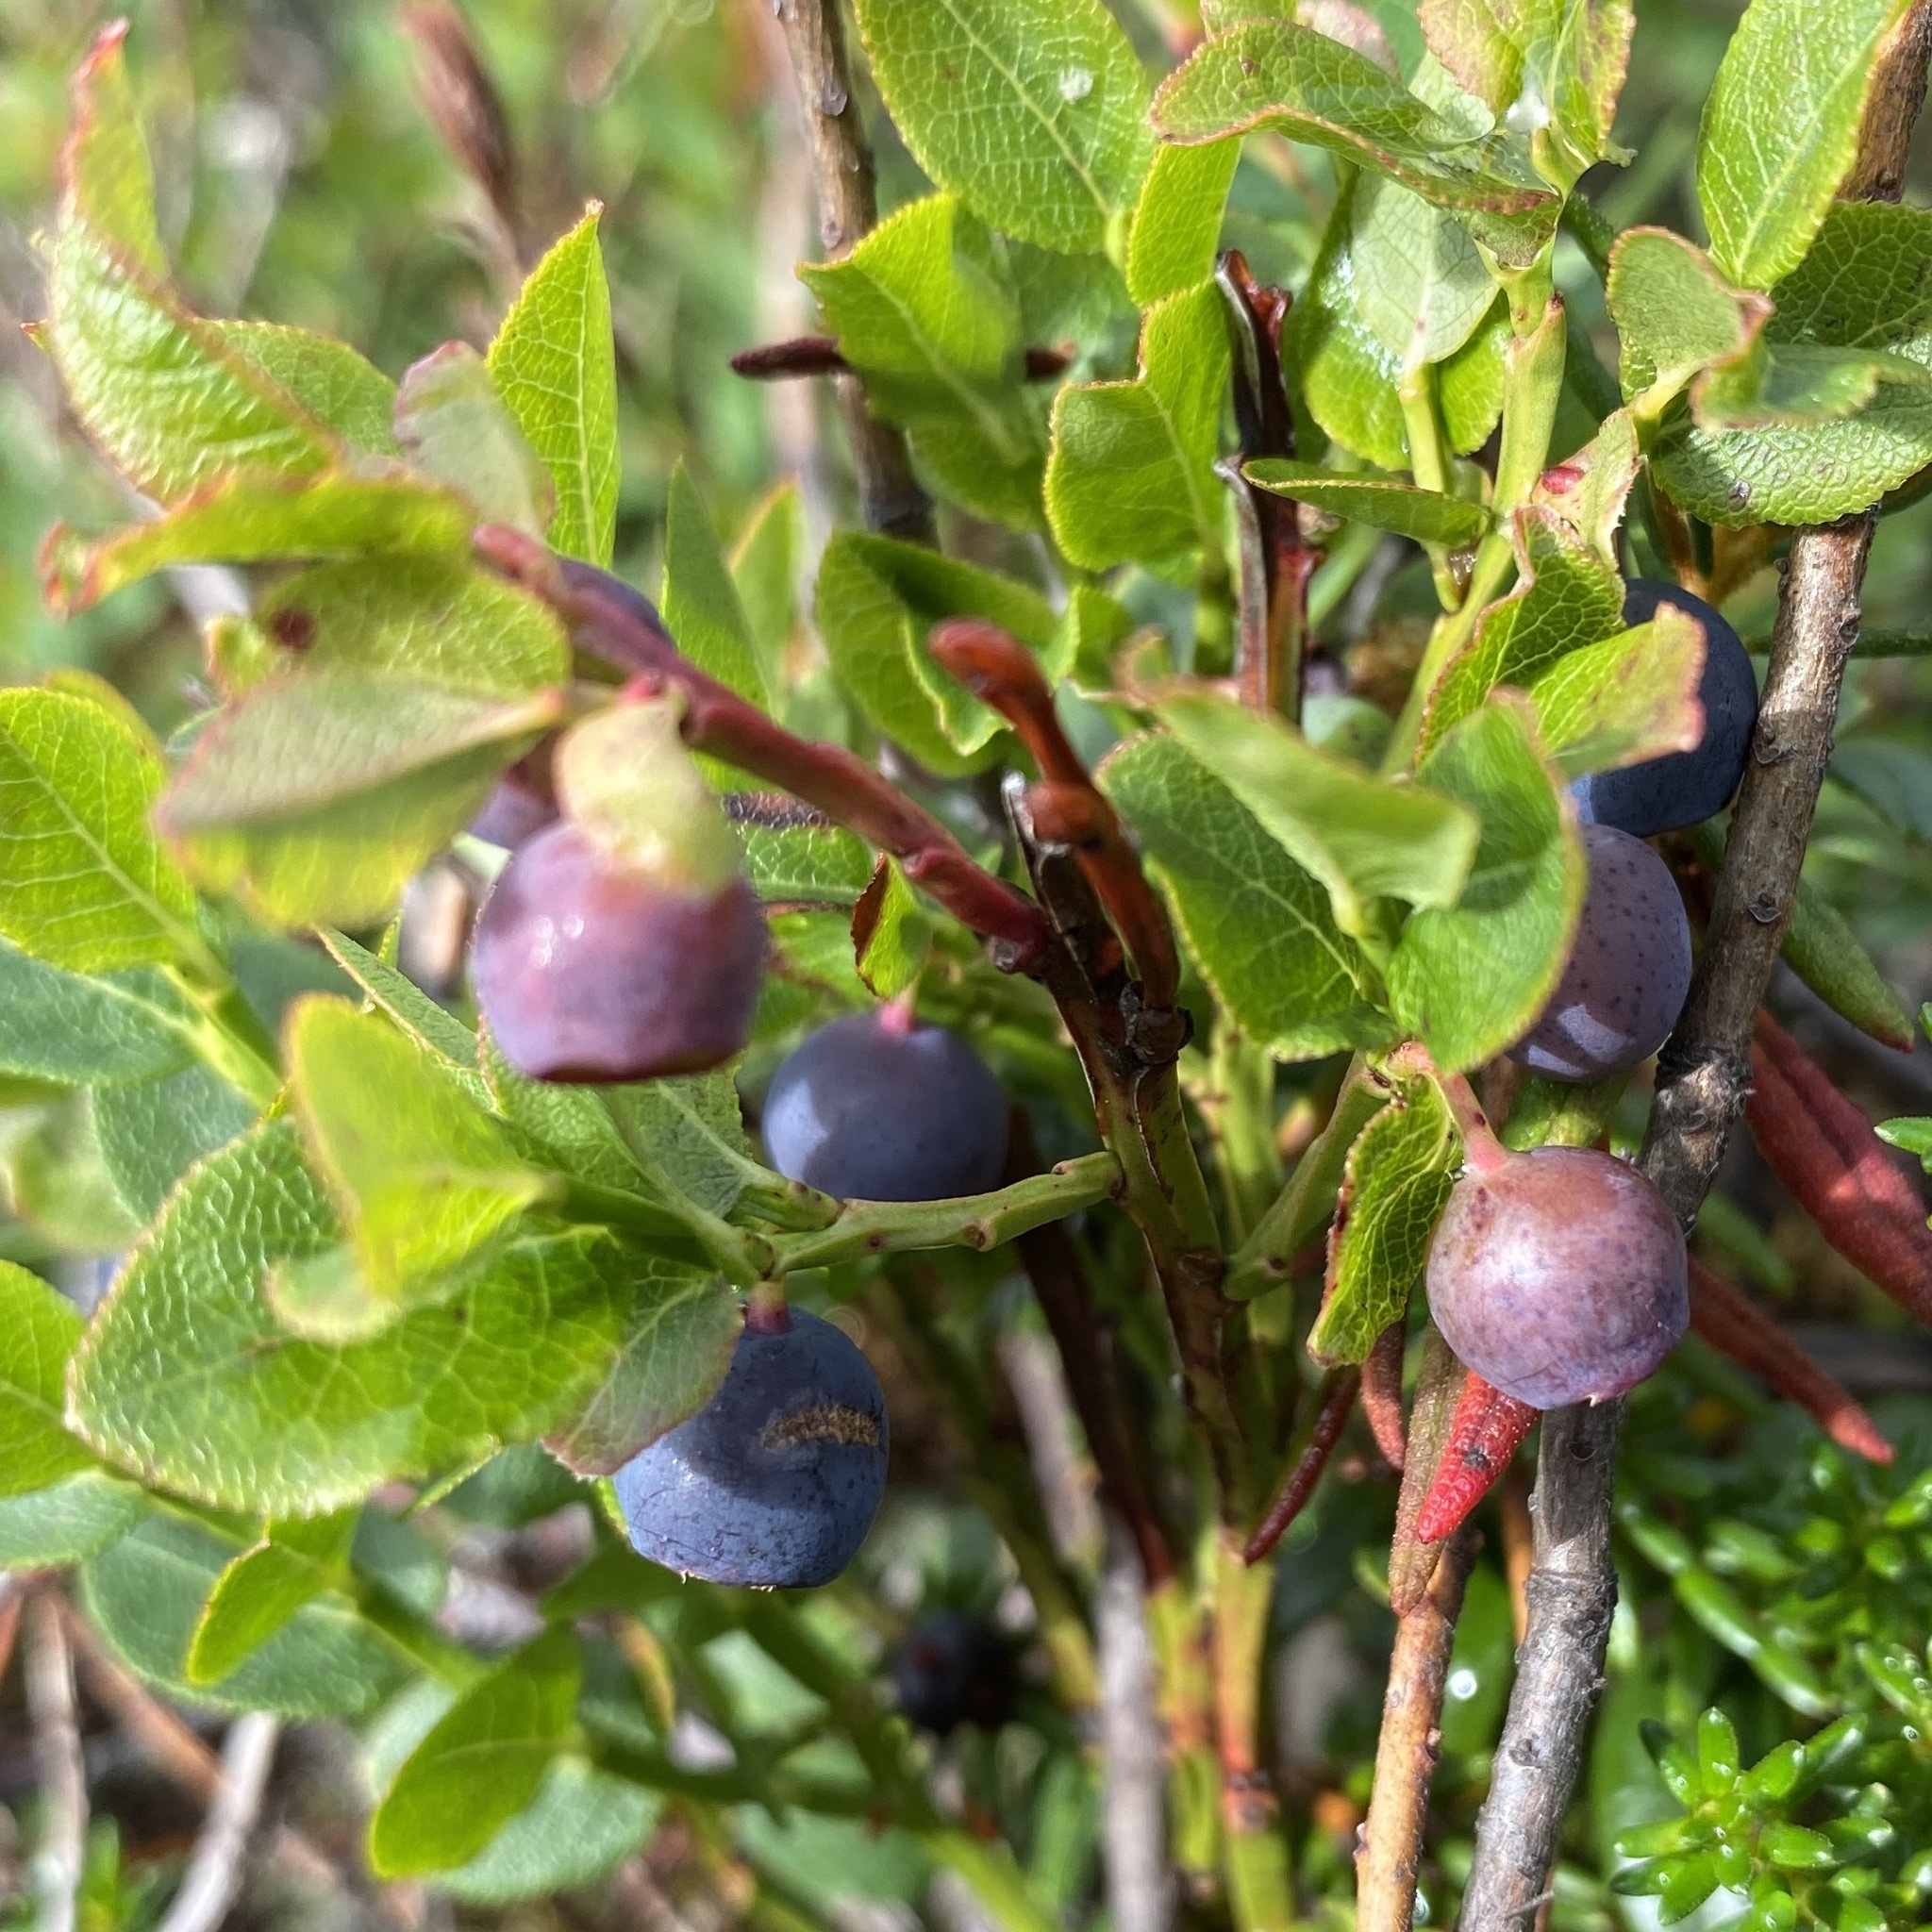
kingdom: Plantae
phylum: Tracheophyta
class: Magnoliopsida
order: Ericales
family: Ericaceae
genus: Vaccinium
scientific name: Vaccinium myrtillus
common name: Bilberry
